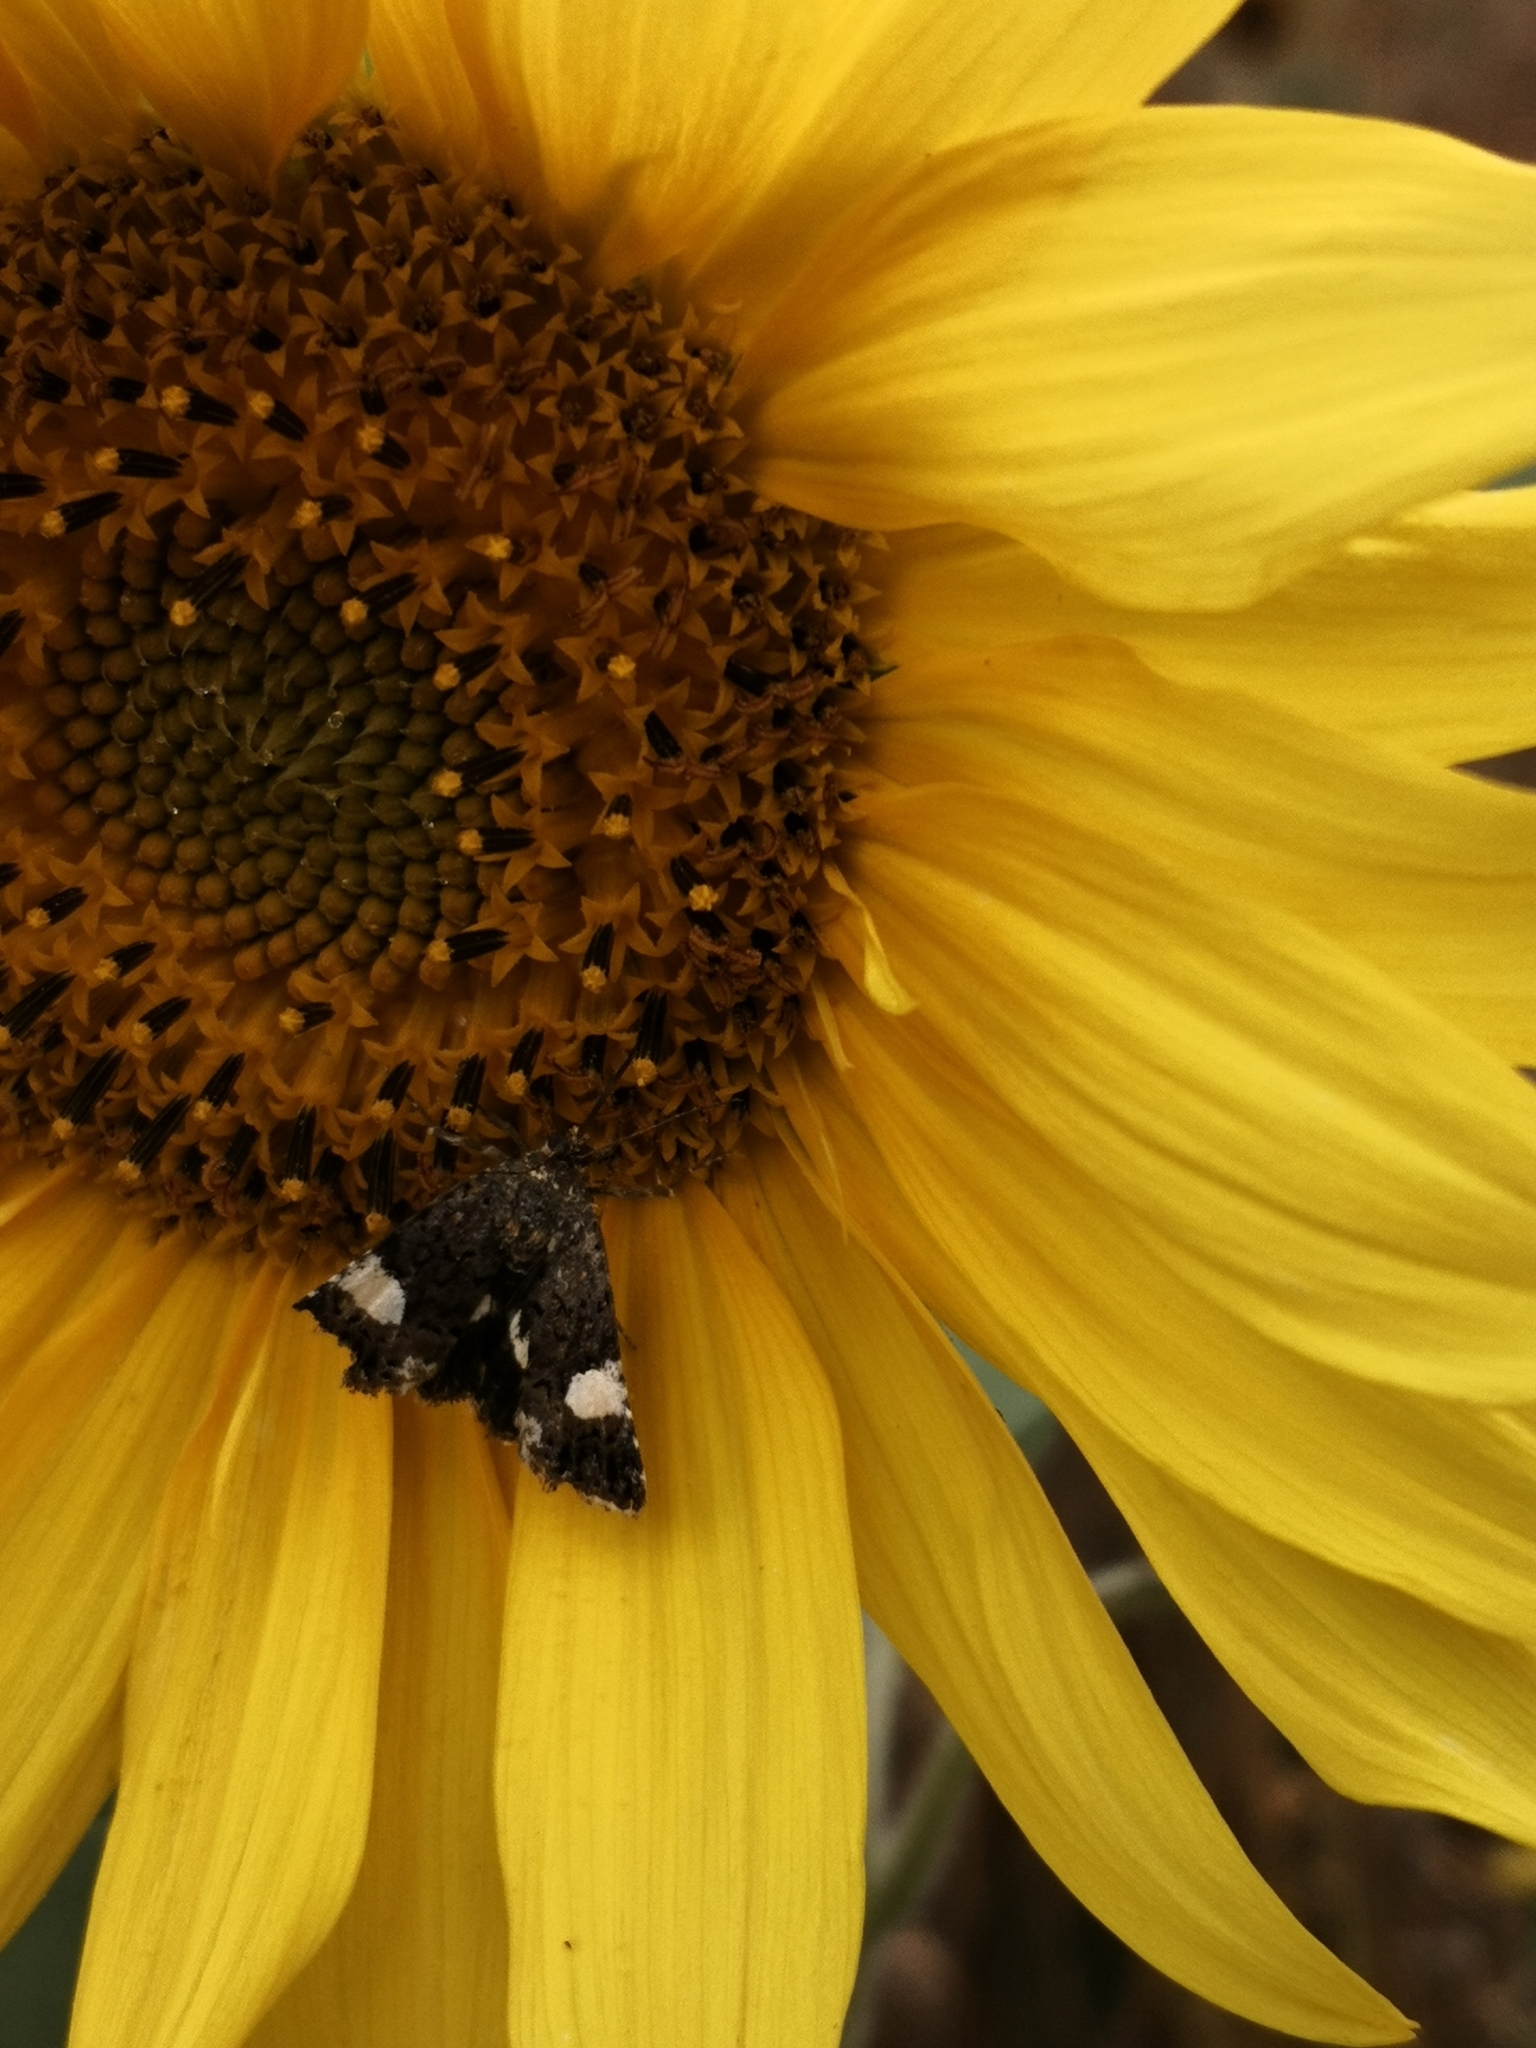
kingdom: Animalia
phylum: Arthropoda
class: Insecta
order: Lepidoptera
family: Erebidae
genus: Tyta
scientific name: Tyta luctuosa
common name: Four-spotted
